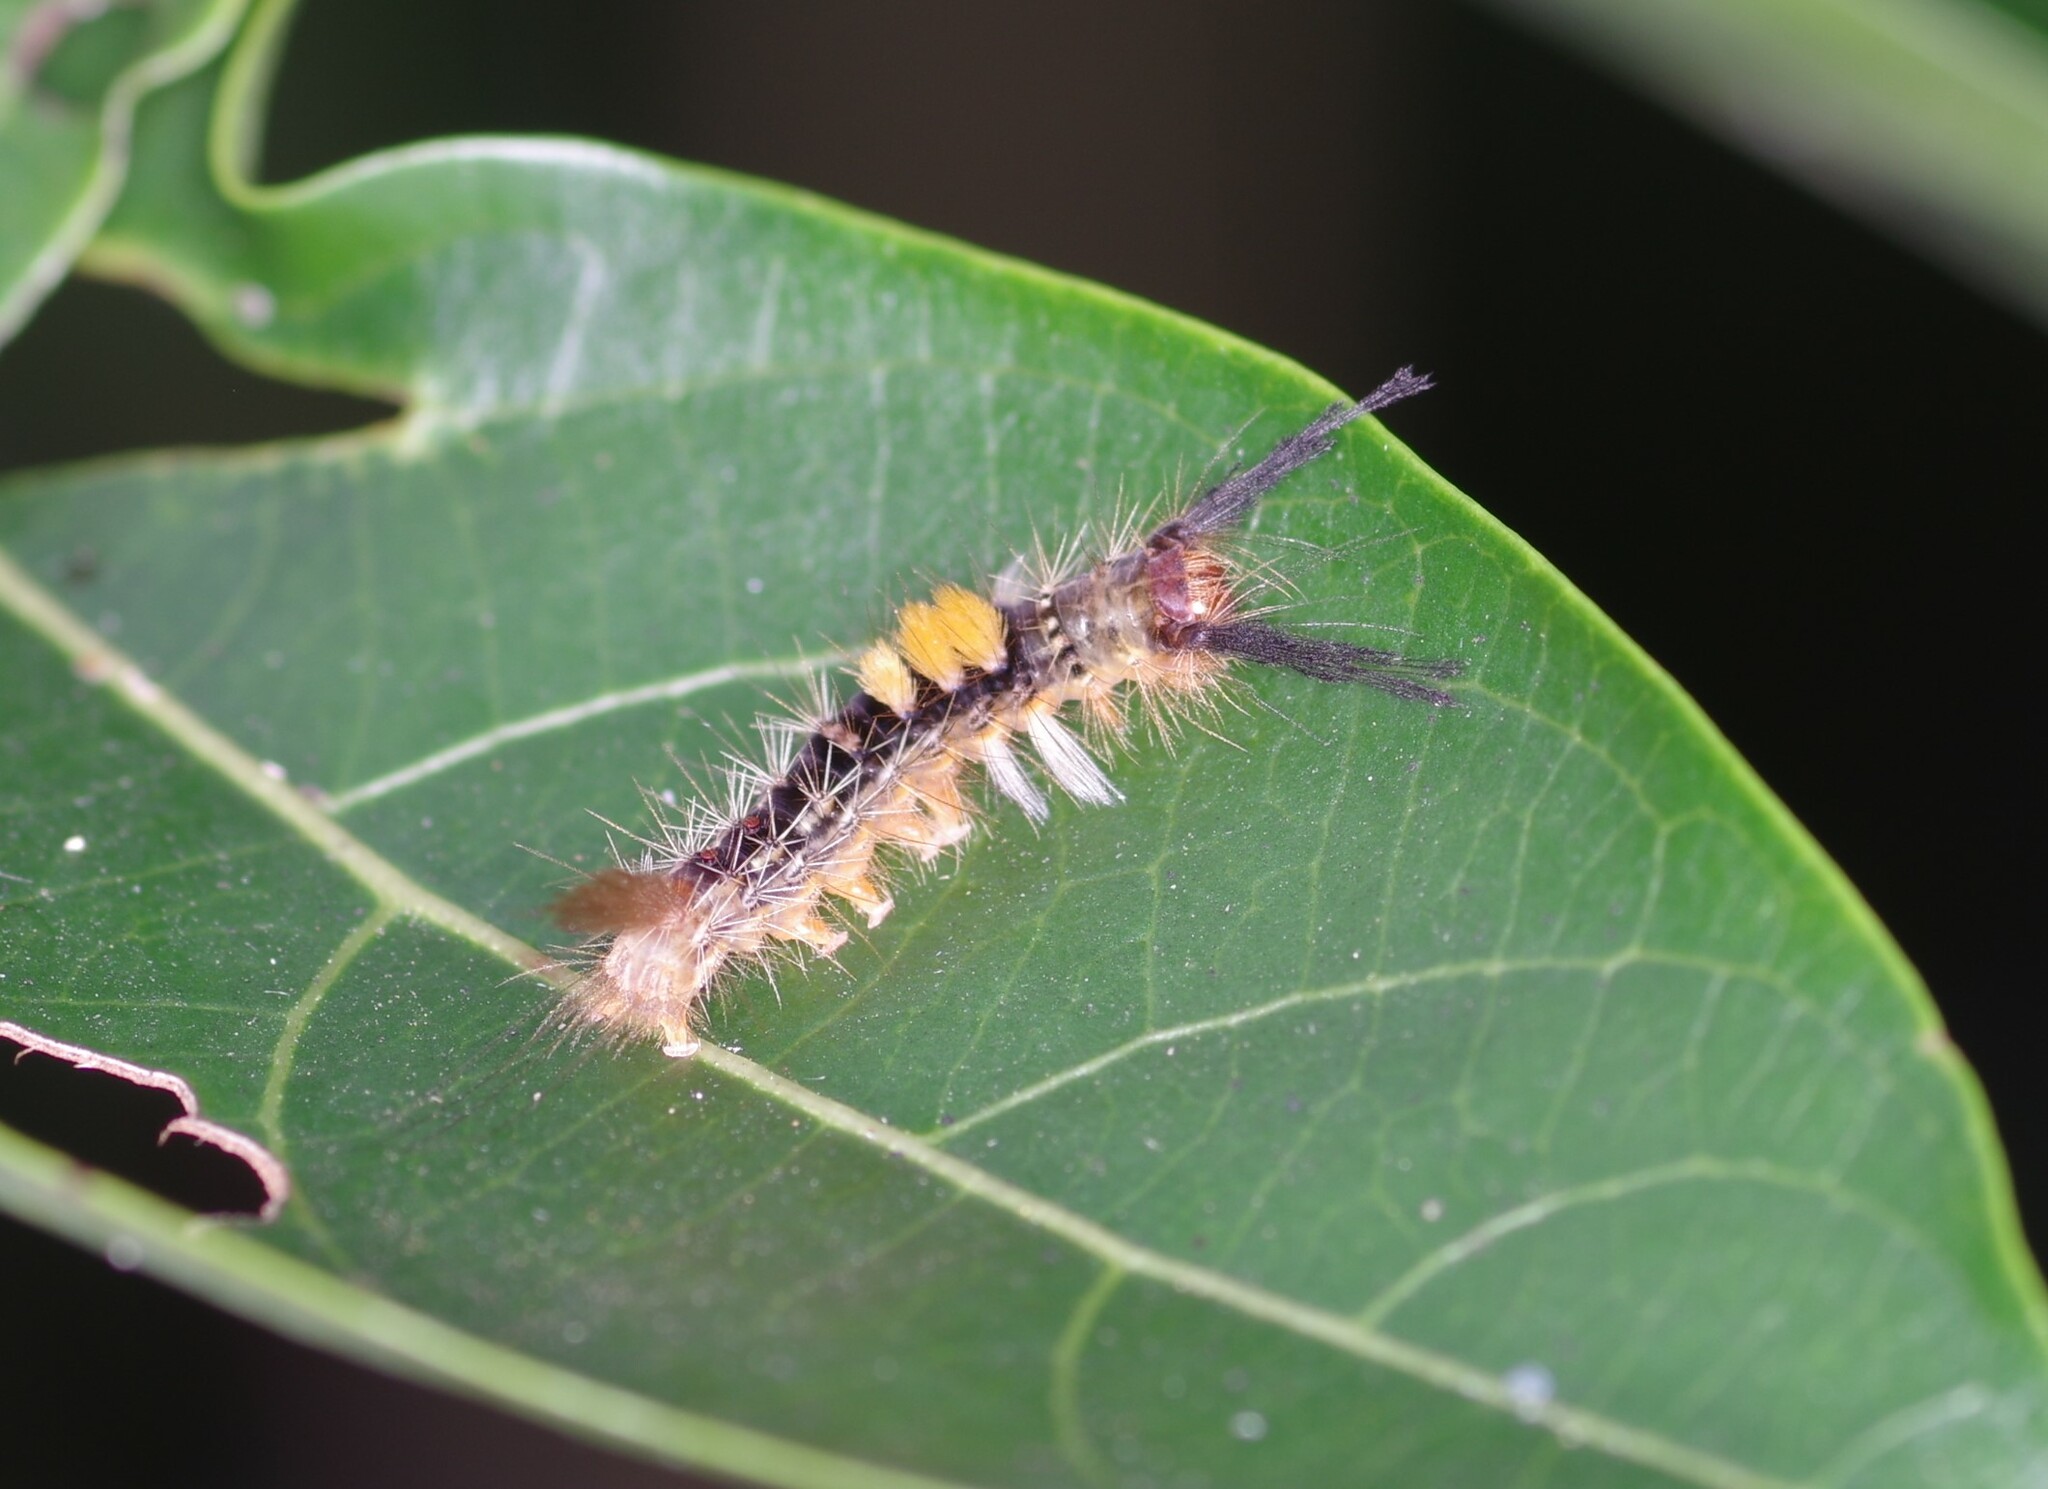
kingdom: Animalia
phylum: Arthropoda
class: Insecta
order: Lepidoptera
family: Erebidae
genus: Orgyia
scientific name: Orgyia postica
